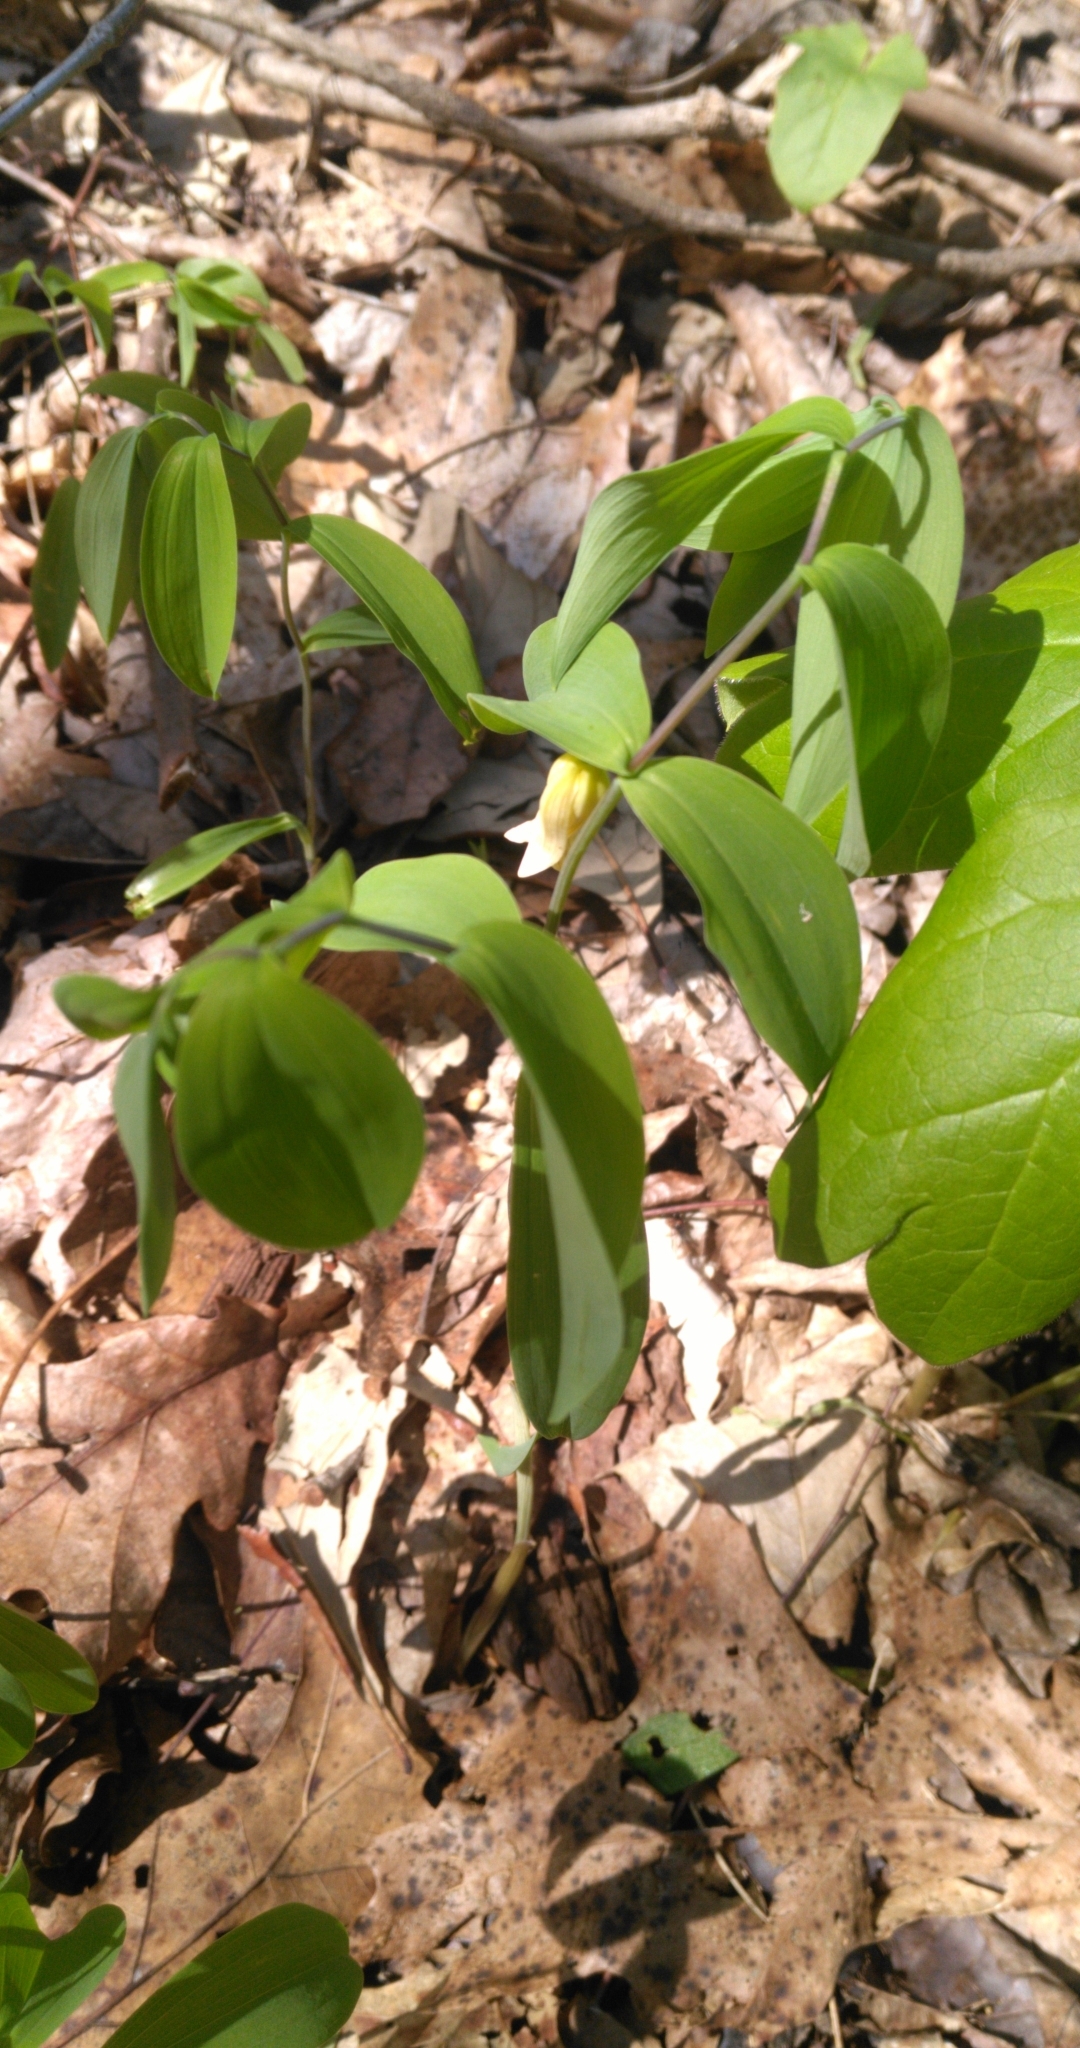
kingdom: Plantae
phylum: Tracheophyta
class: Liliopsida
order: Liliales
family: Colchicaceae
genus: Uvularia
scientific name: Uvularia sessilifolia
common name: Straw-lily
